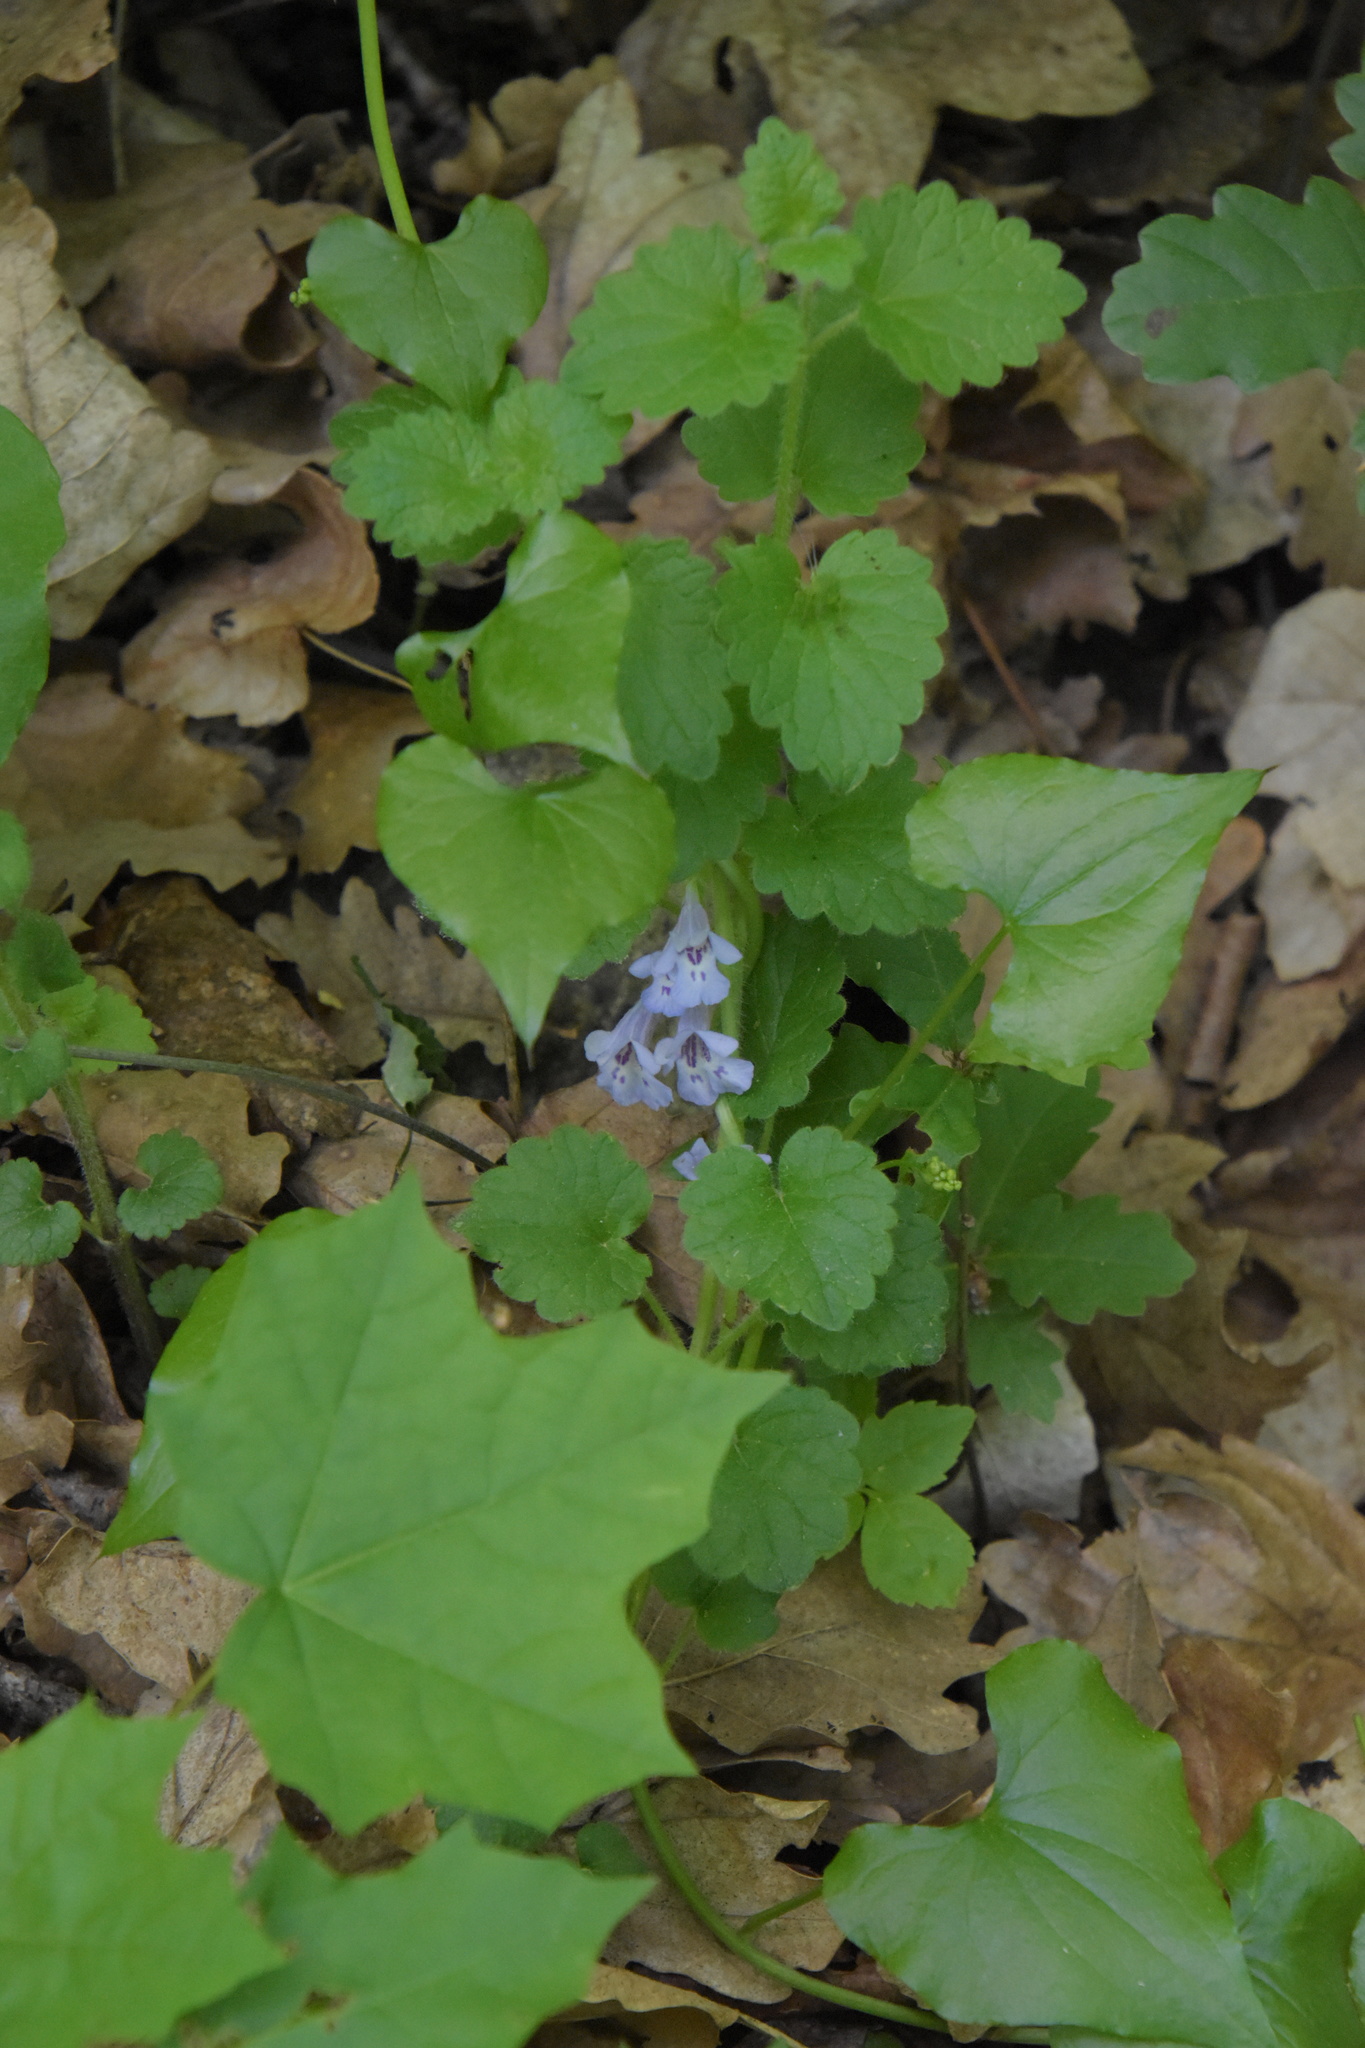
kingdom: Plantae
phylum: Tracheophyta
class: Magnoliopsida
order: Lamiales
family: Lamiaceae
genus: Glechoma
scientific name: Glechoma hederacea
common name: Ground ivy
